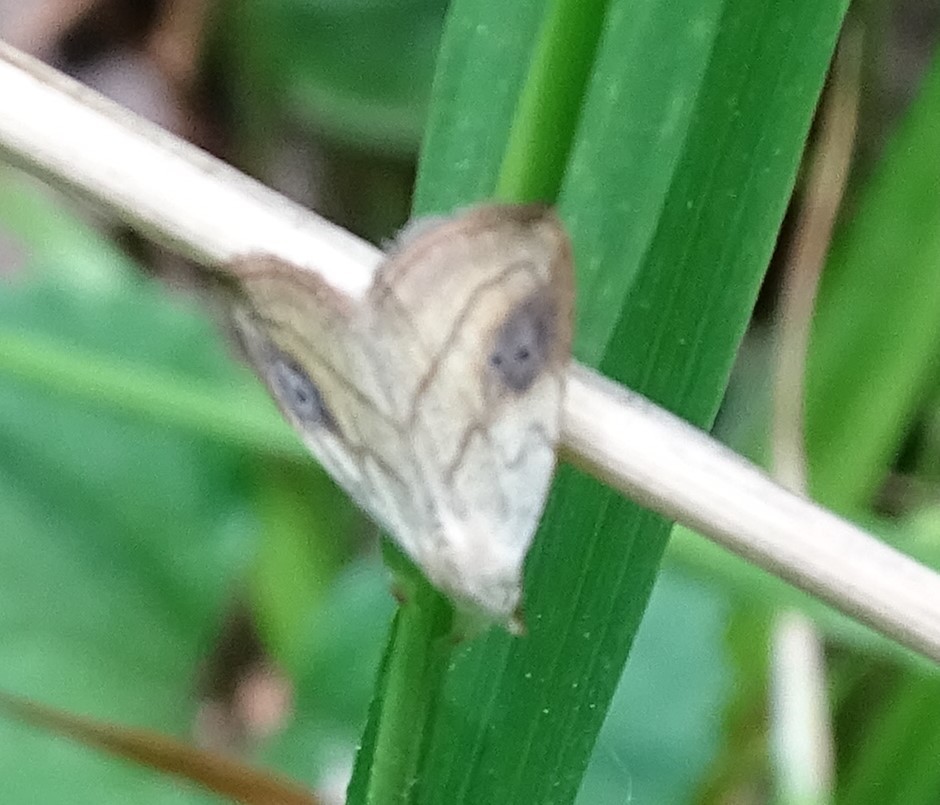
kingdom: Animalia
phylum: Arthropoda
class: Insecta
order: Lepidoptera
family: Erebidae
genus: Rivula
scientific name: Rivula propinqualis
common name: Spotted grass moth
